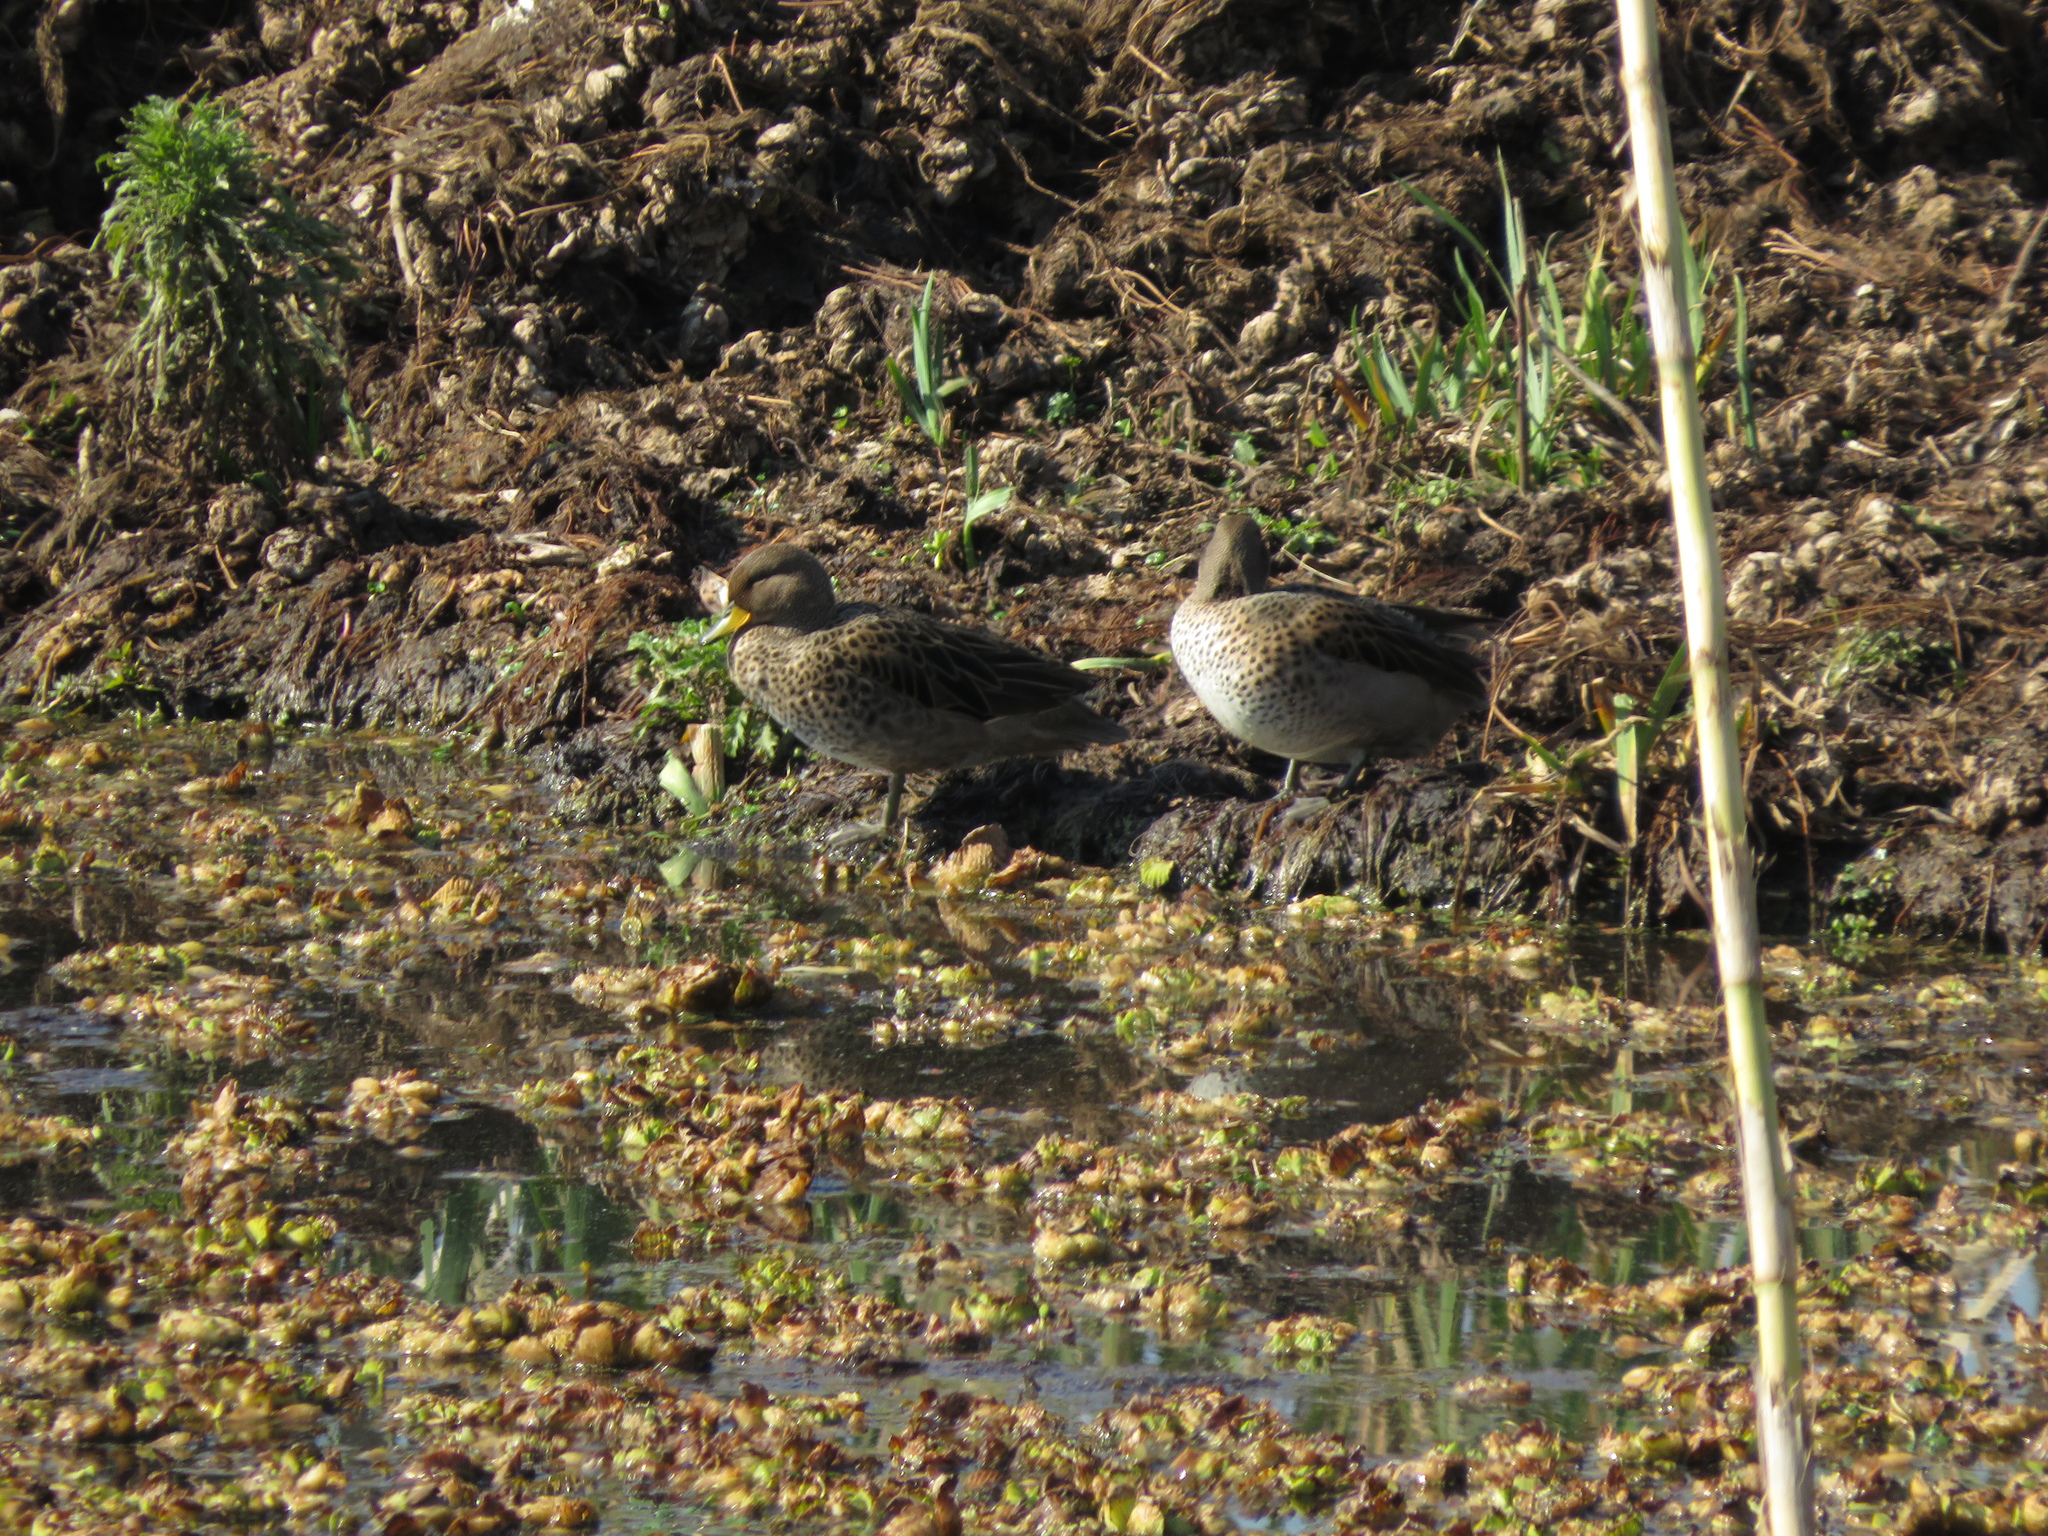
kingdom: Animalia
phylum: Chordata
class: Aves
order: Anseriformes
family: Anatidae
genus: Anas
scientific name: Anas flavirostris
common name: Yellow-billed teal
